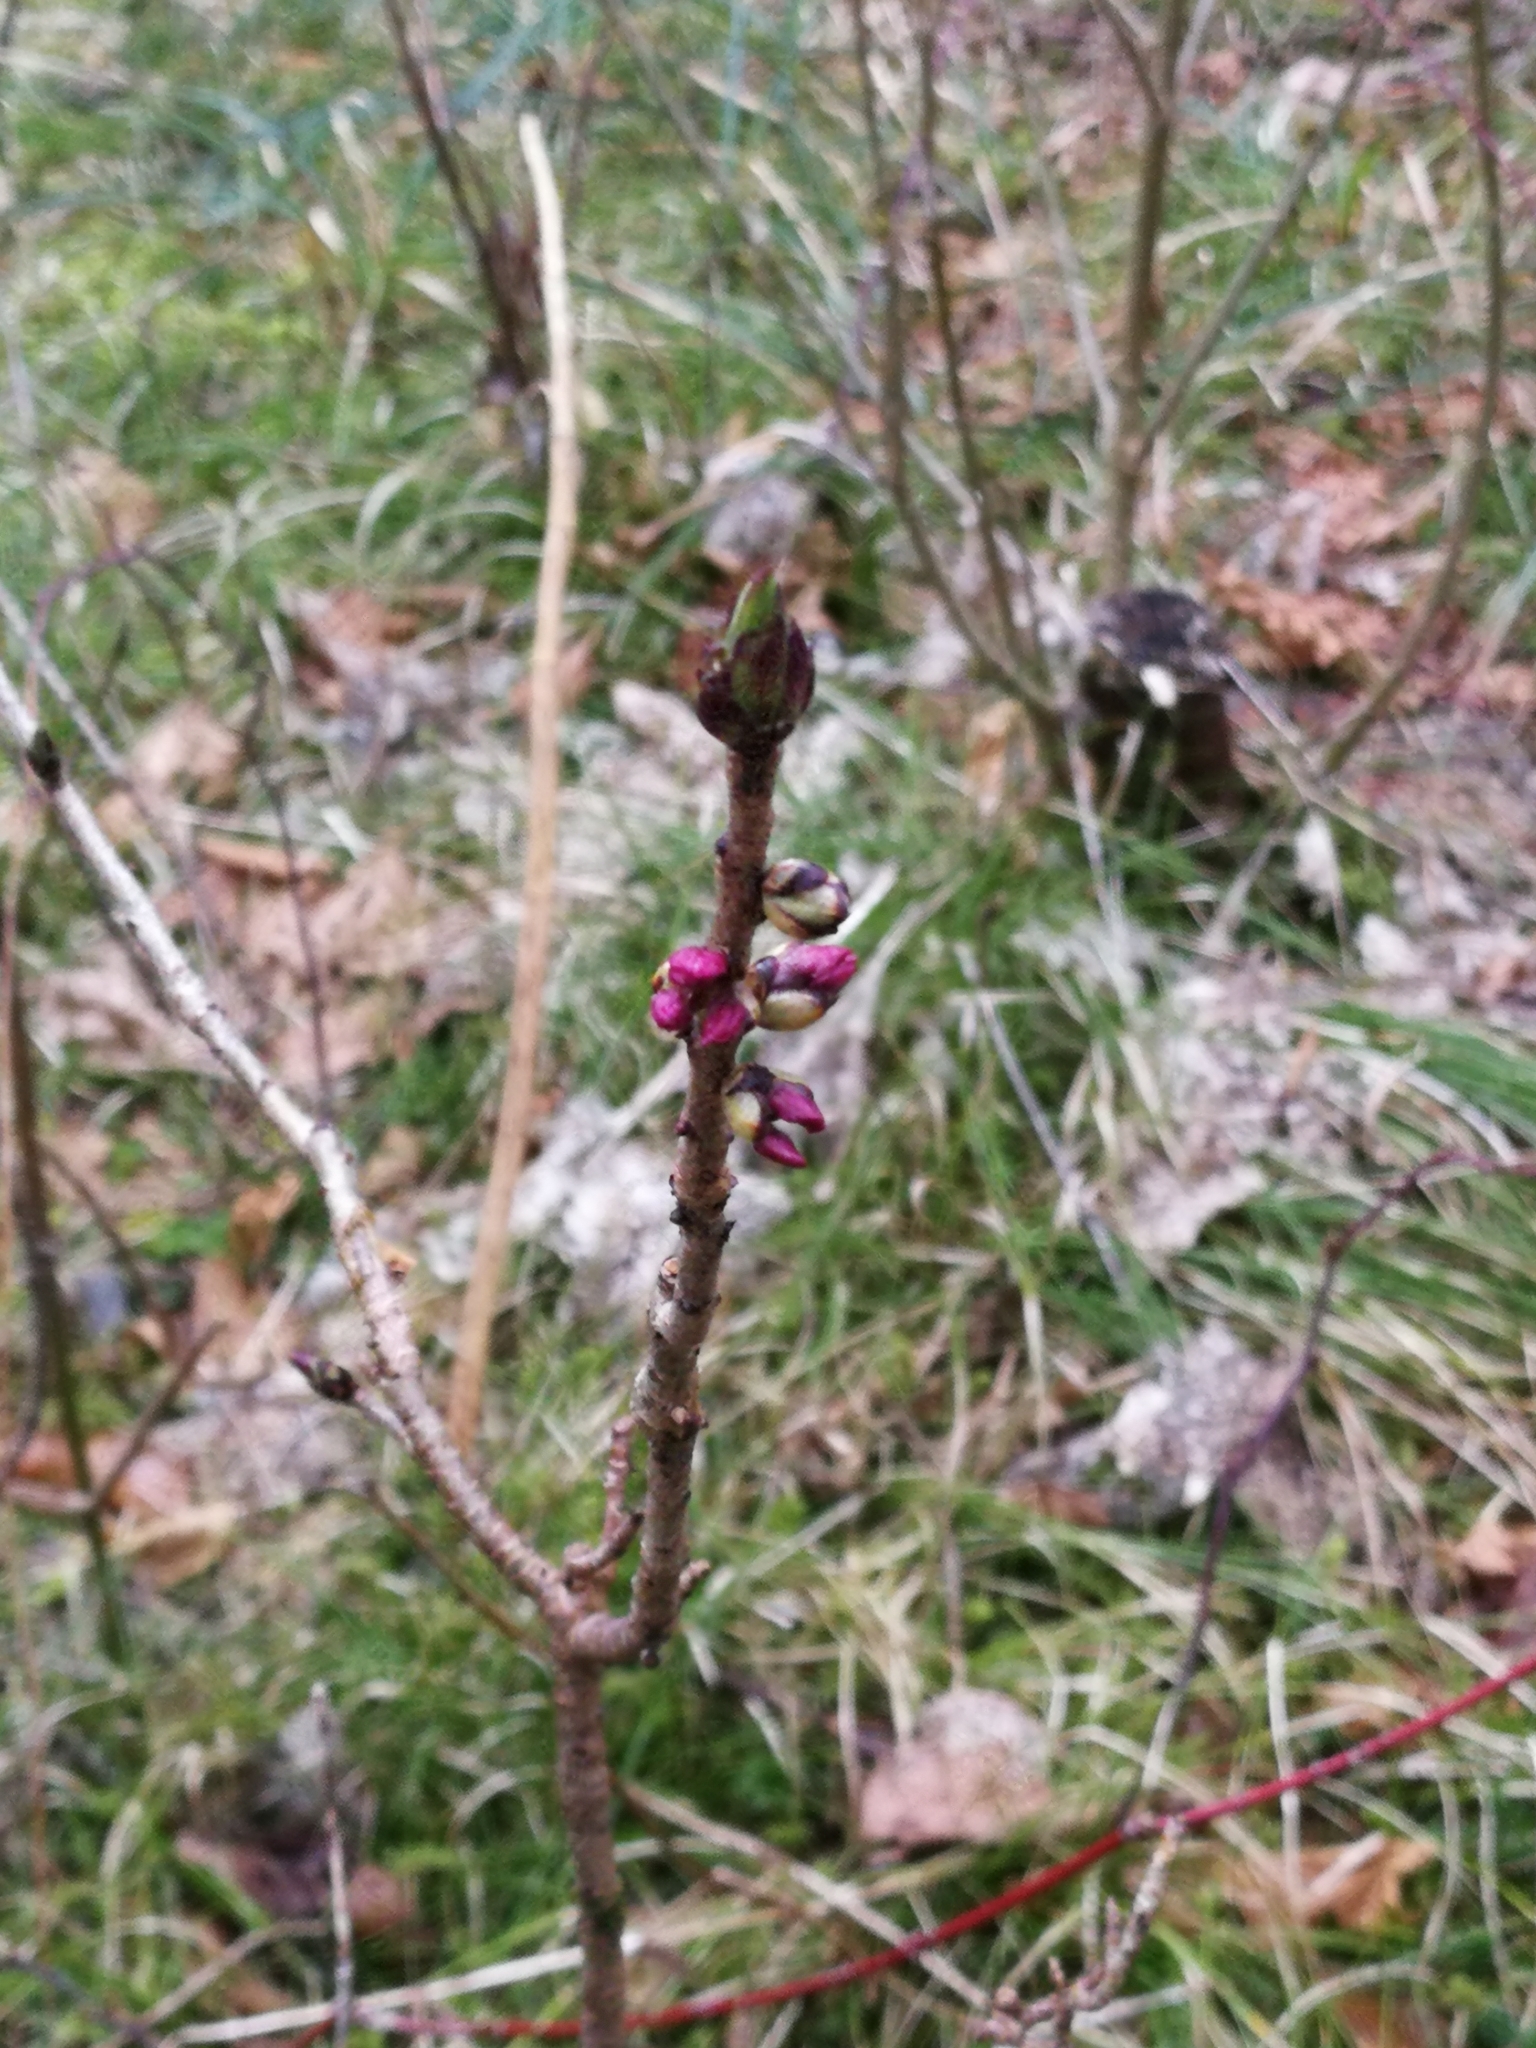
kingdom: Plantae
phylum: Tracheophyta
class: Magnoliopsida
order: Malvales
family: Thymelaeaceae
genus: Daphne
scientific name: Daphne mezereum
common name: Mezereon
